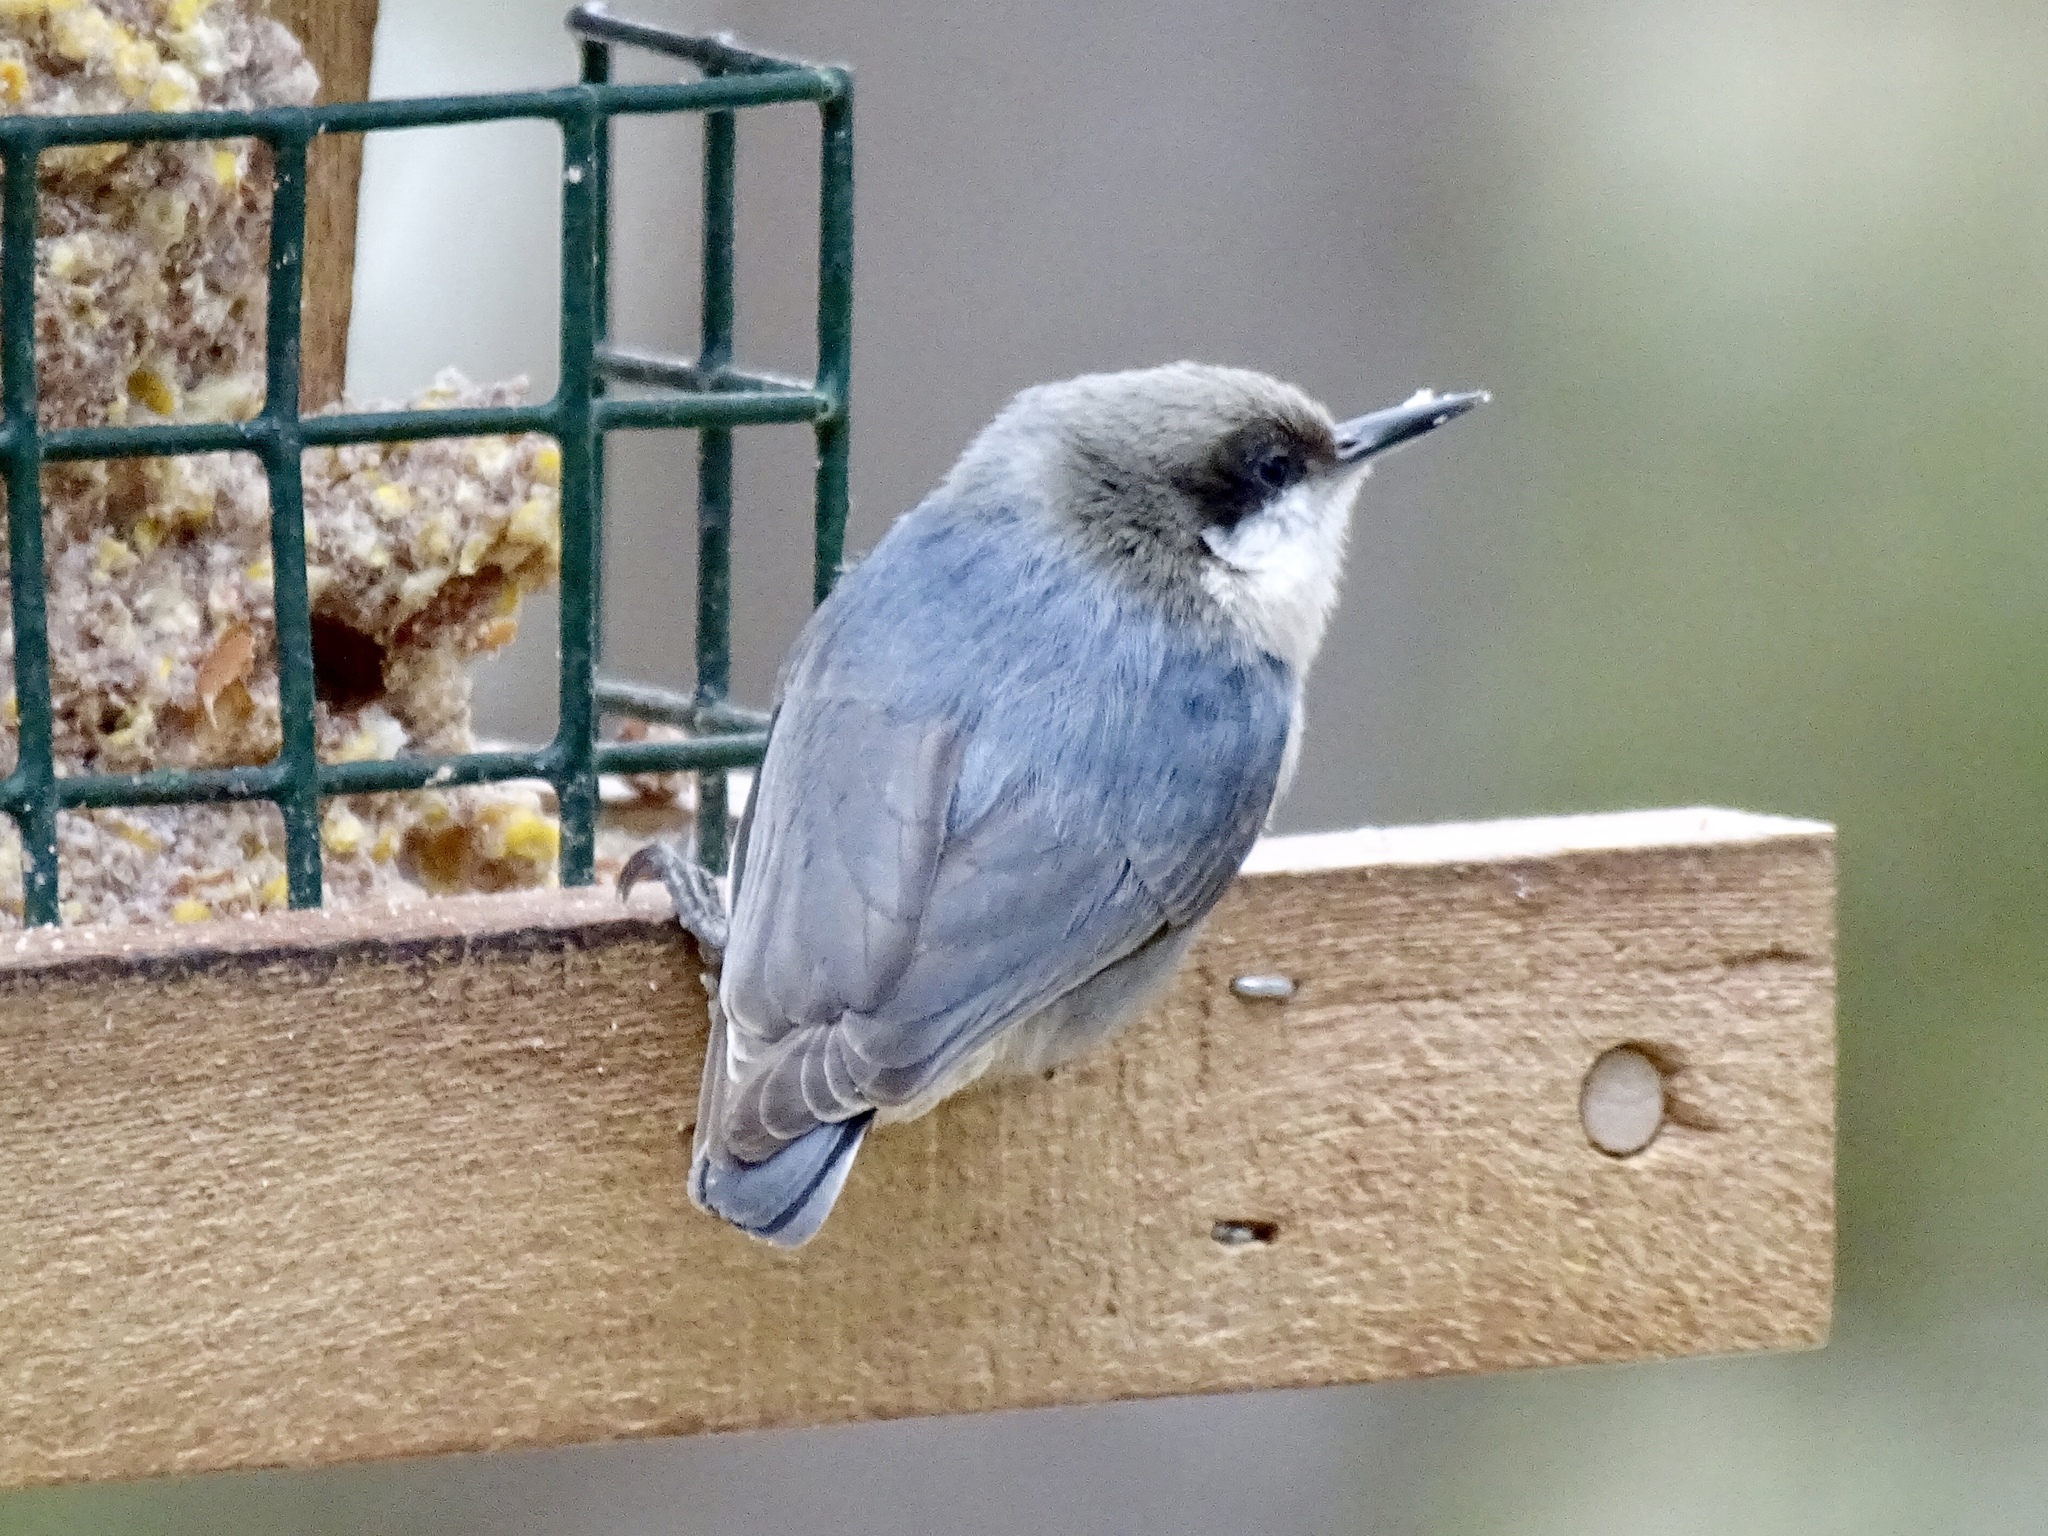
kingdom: Animalia
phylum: Chordata
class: Aves
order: Passeriformes
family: Sittidae
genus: Sitta
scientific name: Sitta pygmaea
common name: Pygmy nuthatch
